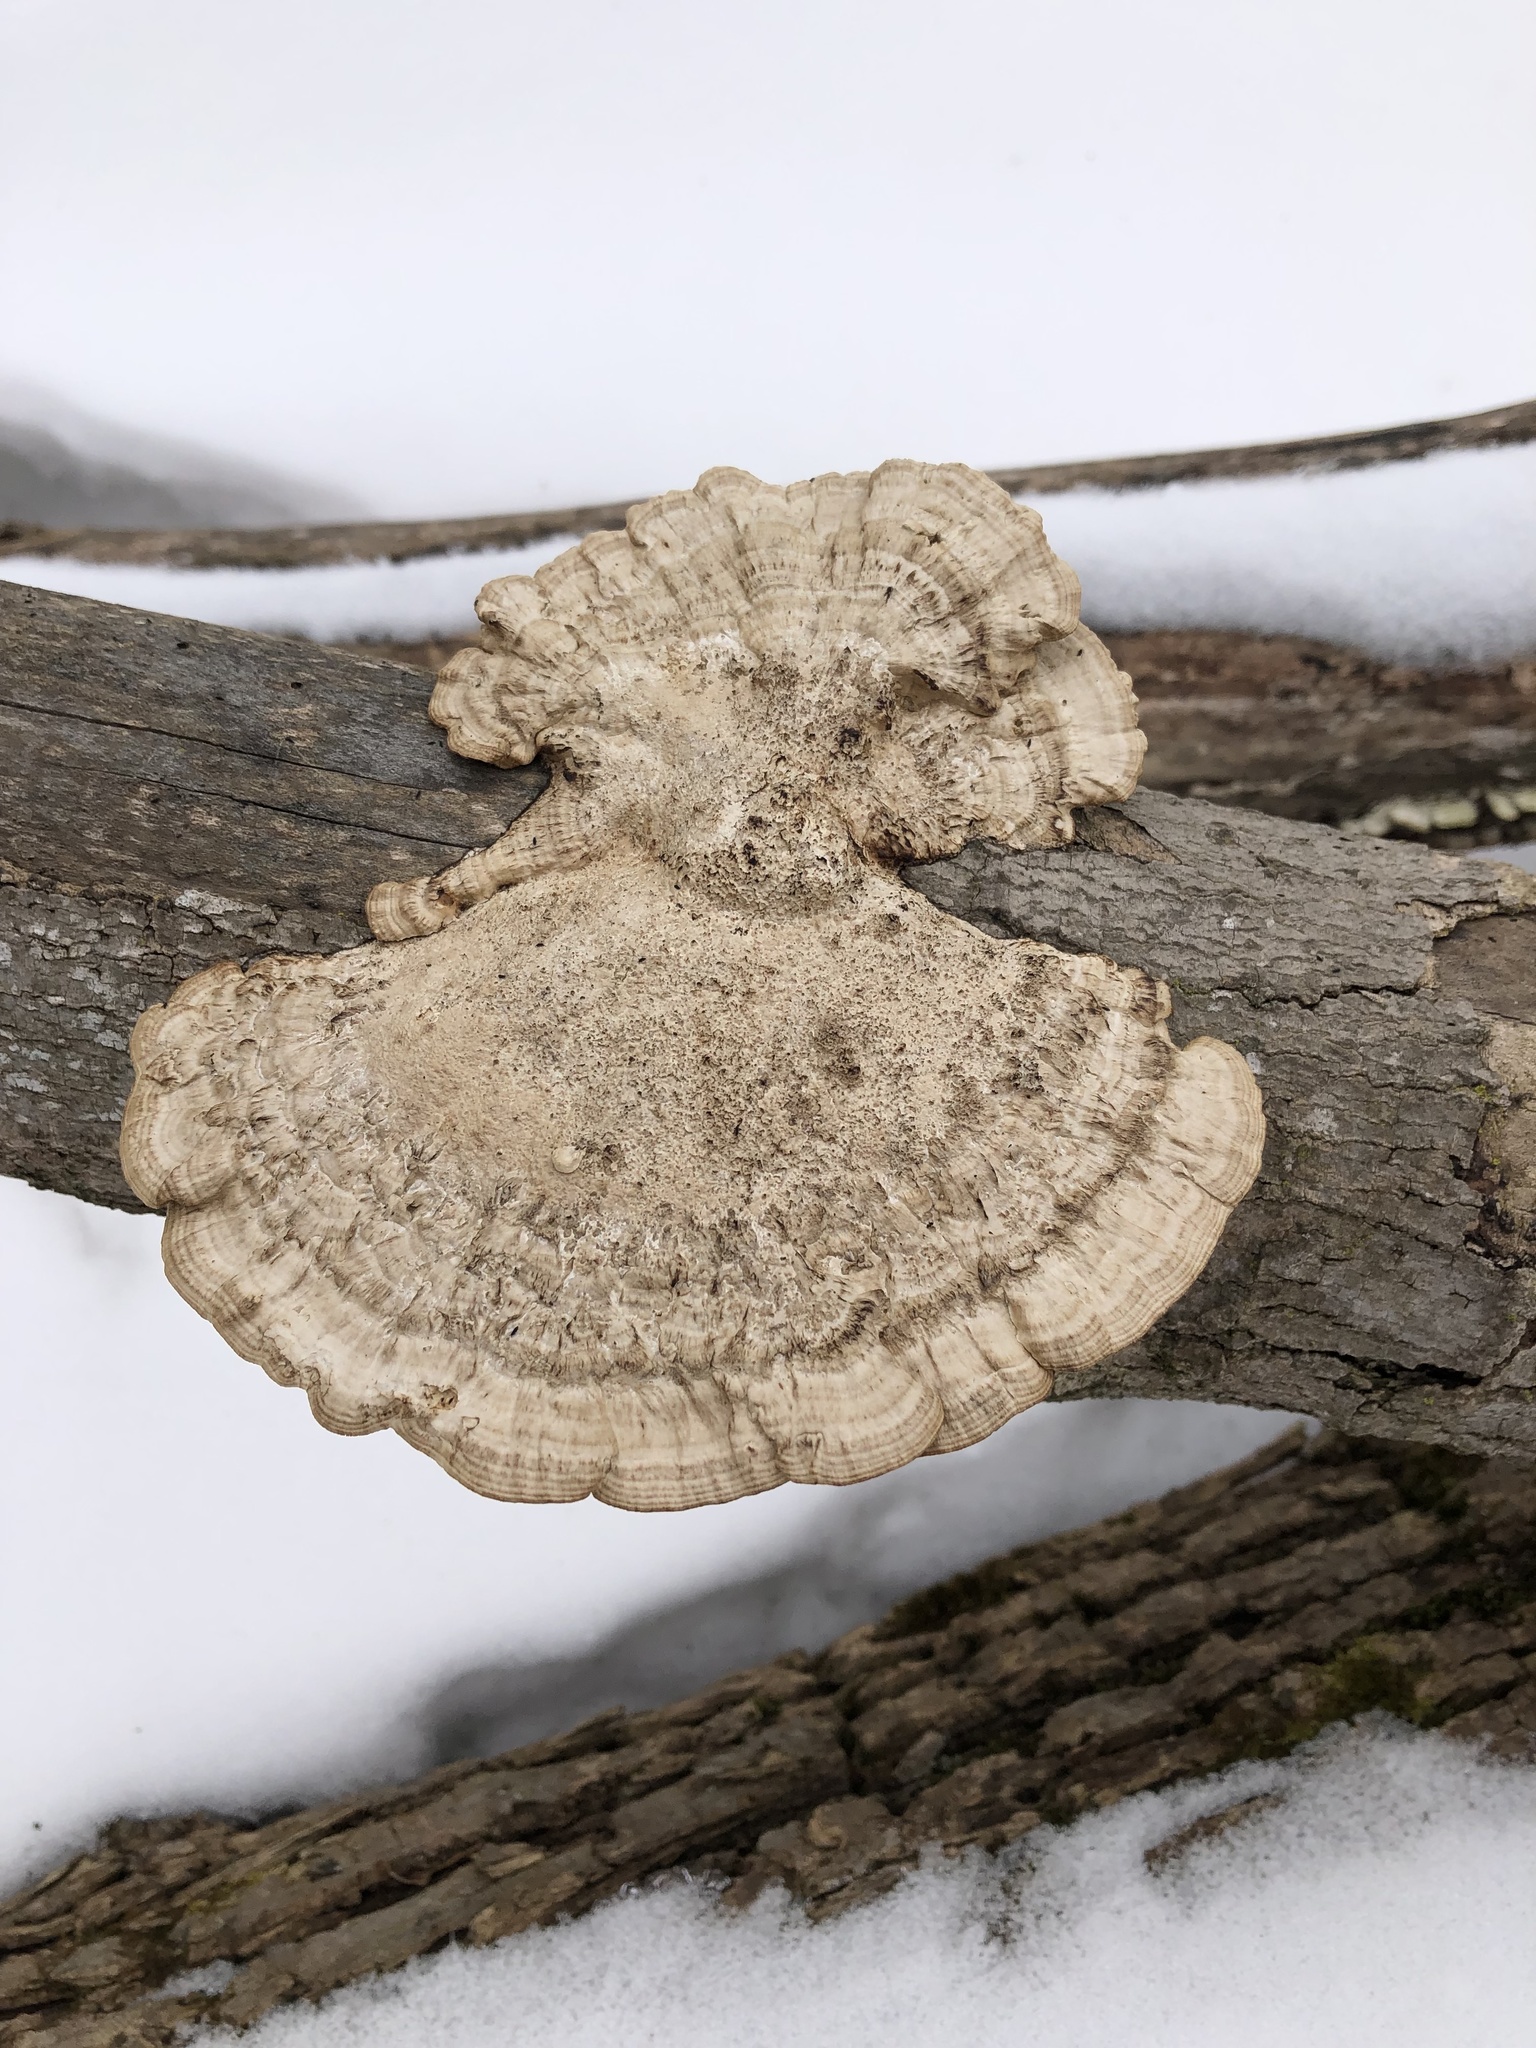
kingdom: Fungi
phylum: Basidiomycota
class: Agaricomycetes
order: Polyporales
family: Polyporaceae
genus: Daedaleopsis
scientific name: Daedaleopsis confragosa
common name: Blushing bracket
